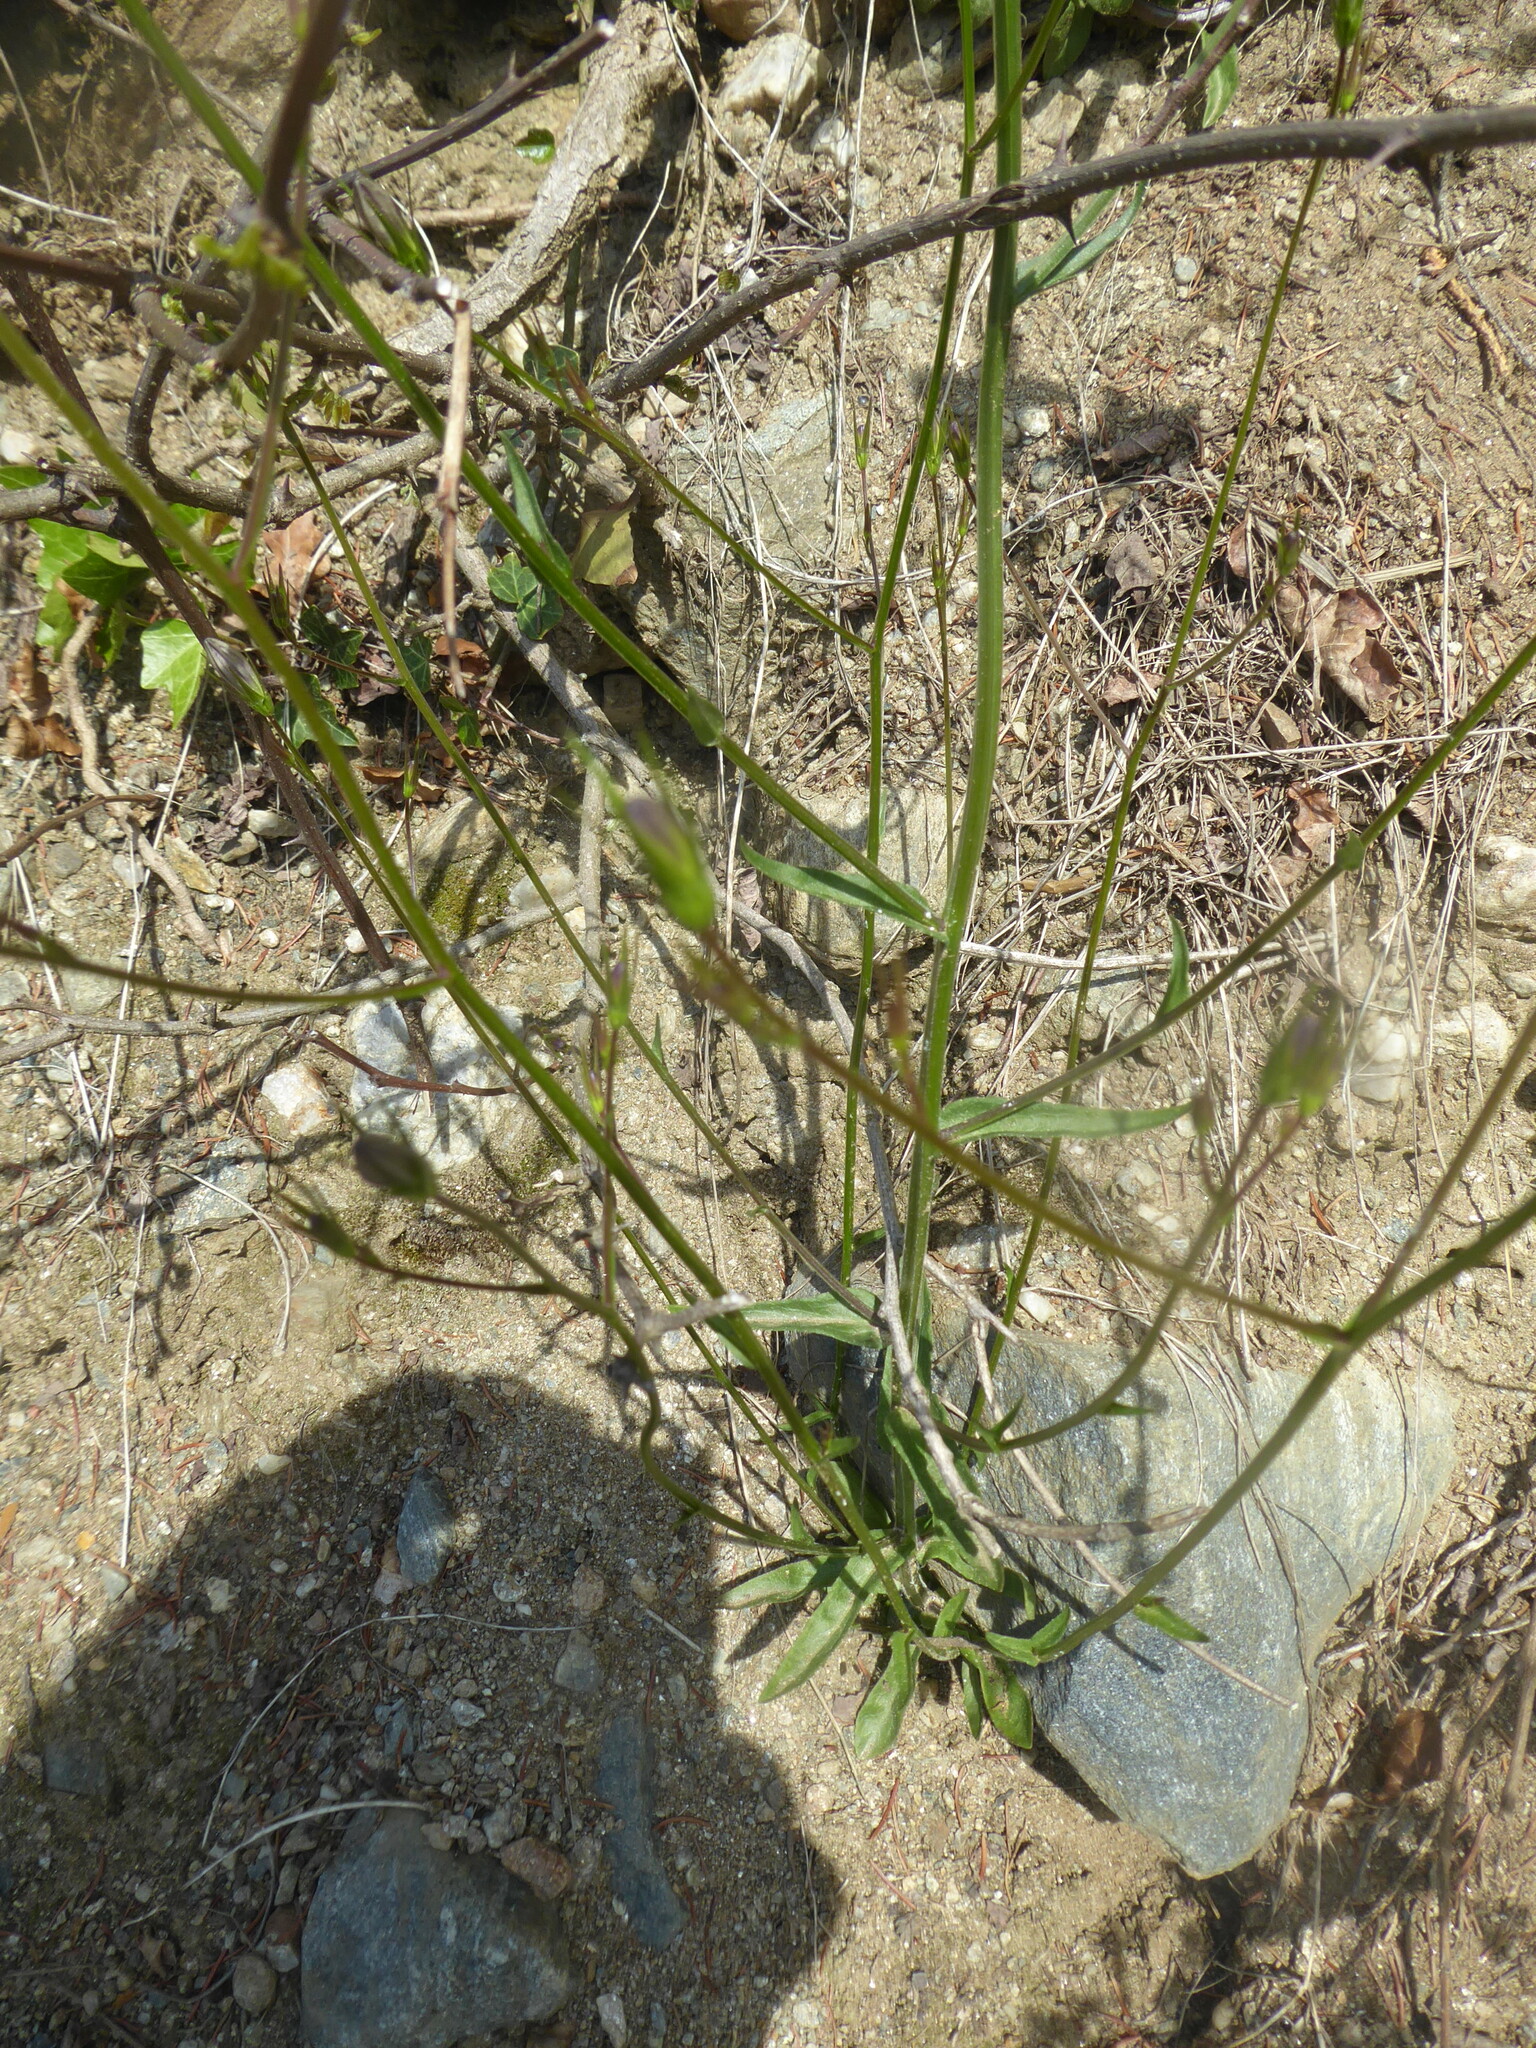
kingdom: Plantae
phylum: Tracheophyta
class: Magnoliopsida
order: Asterales
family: Campanulaceae
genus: Campanula
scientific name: Campanula patula
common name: Spreading bellflower
